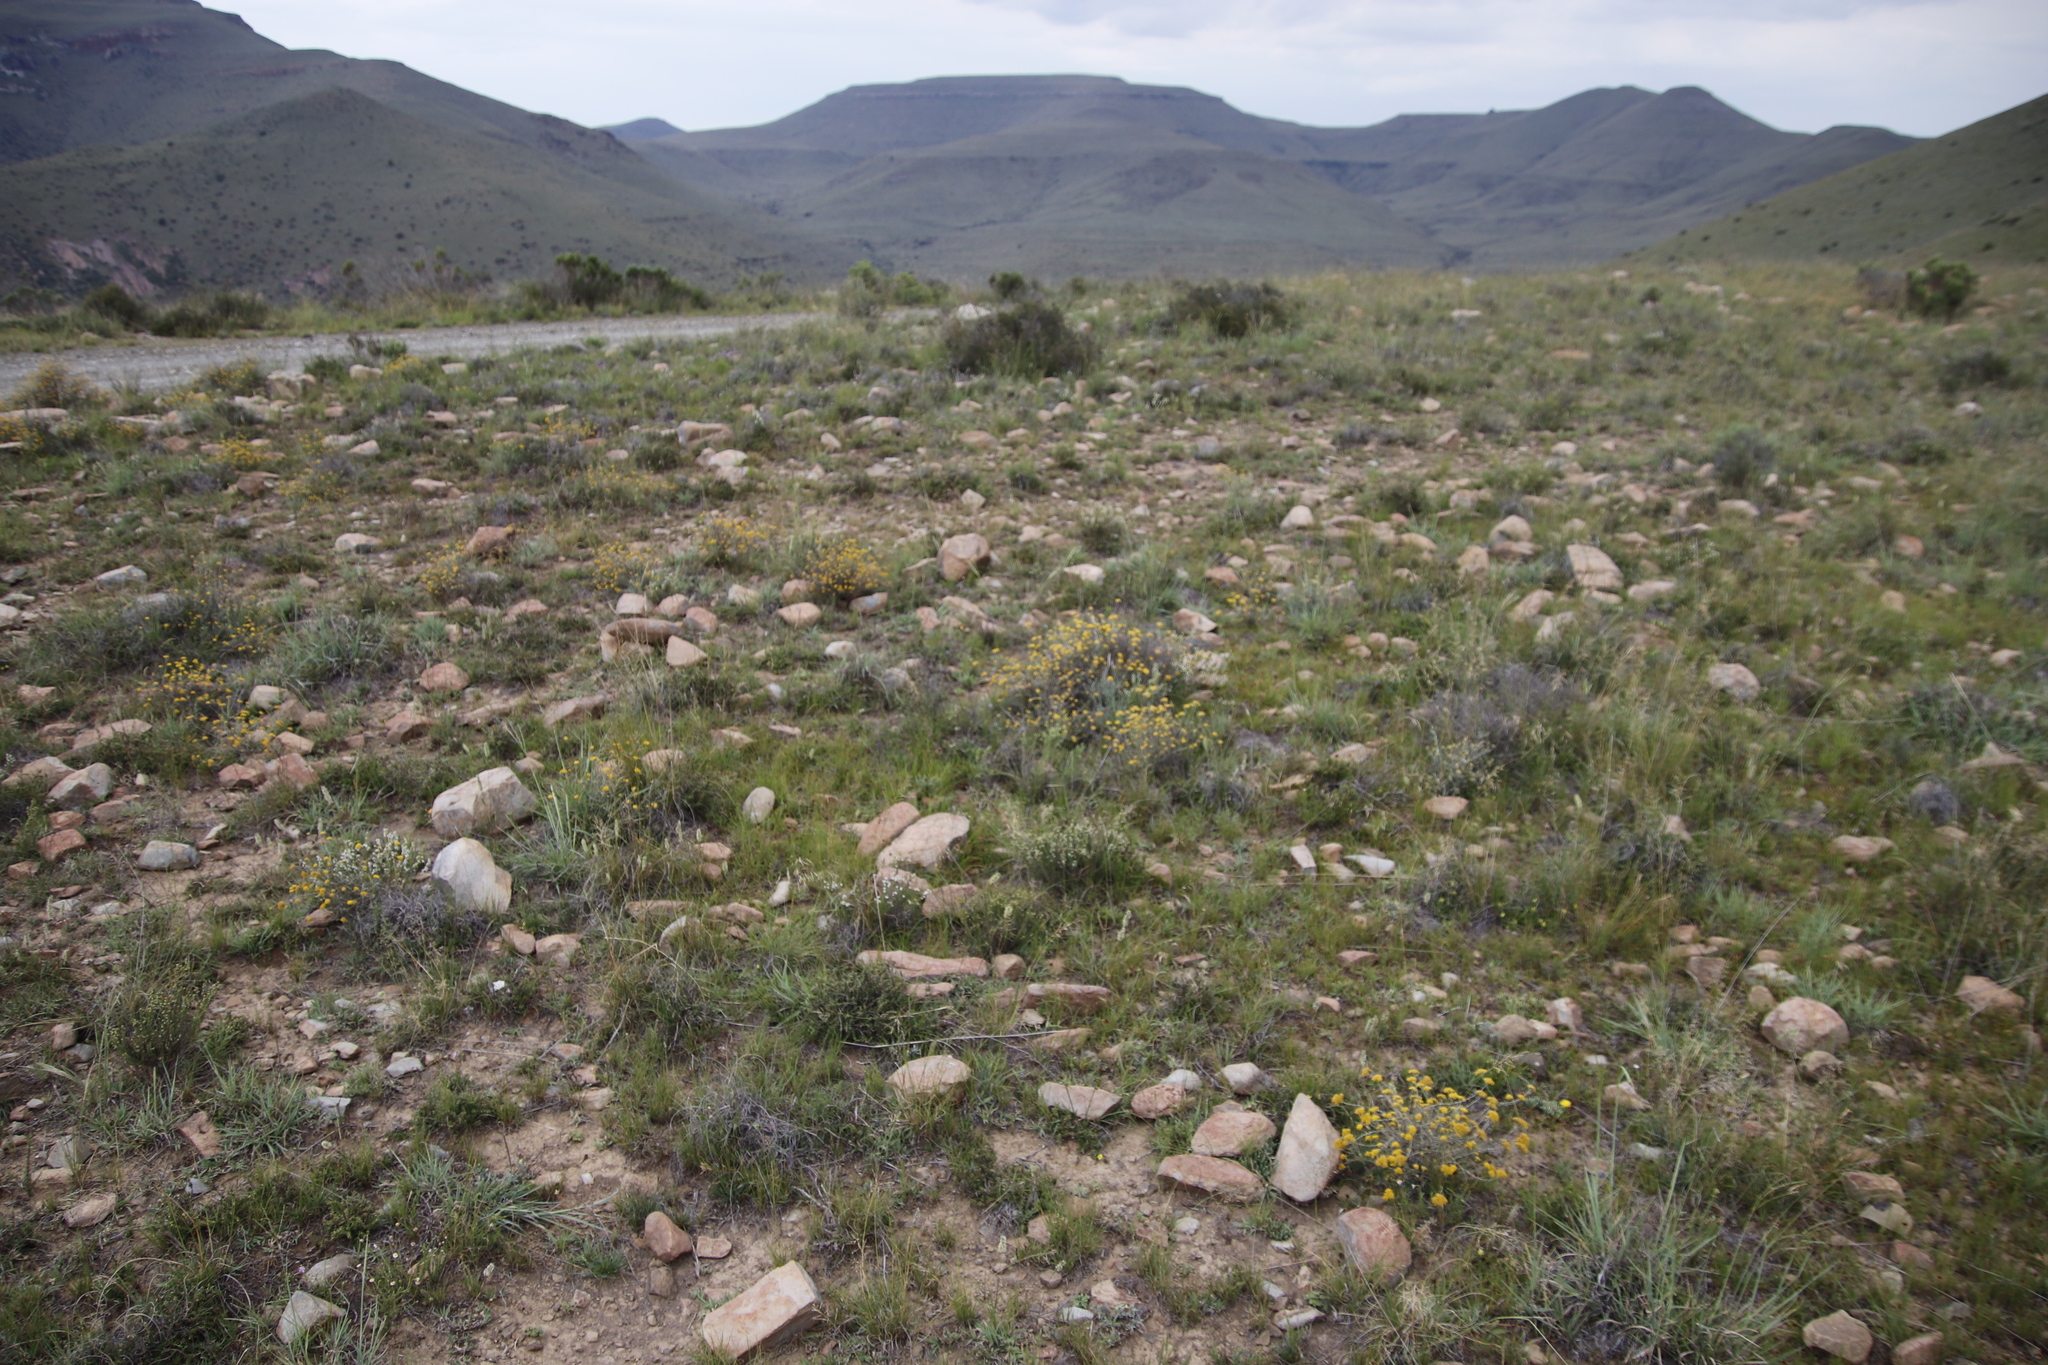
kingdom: Plantae
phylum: Tracheophyta
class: Magnoliopsida
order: Asterales
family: Asteraceae
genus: Helichrysum
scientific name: Helichrysum rutilans
